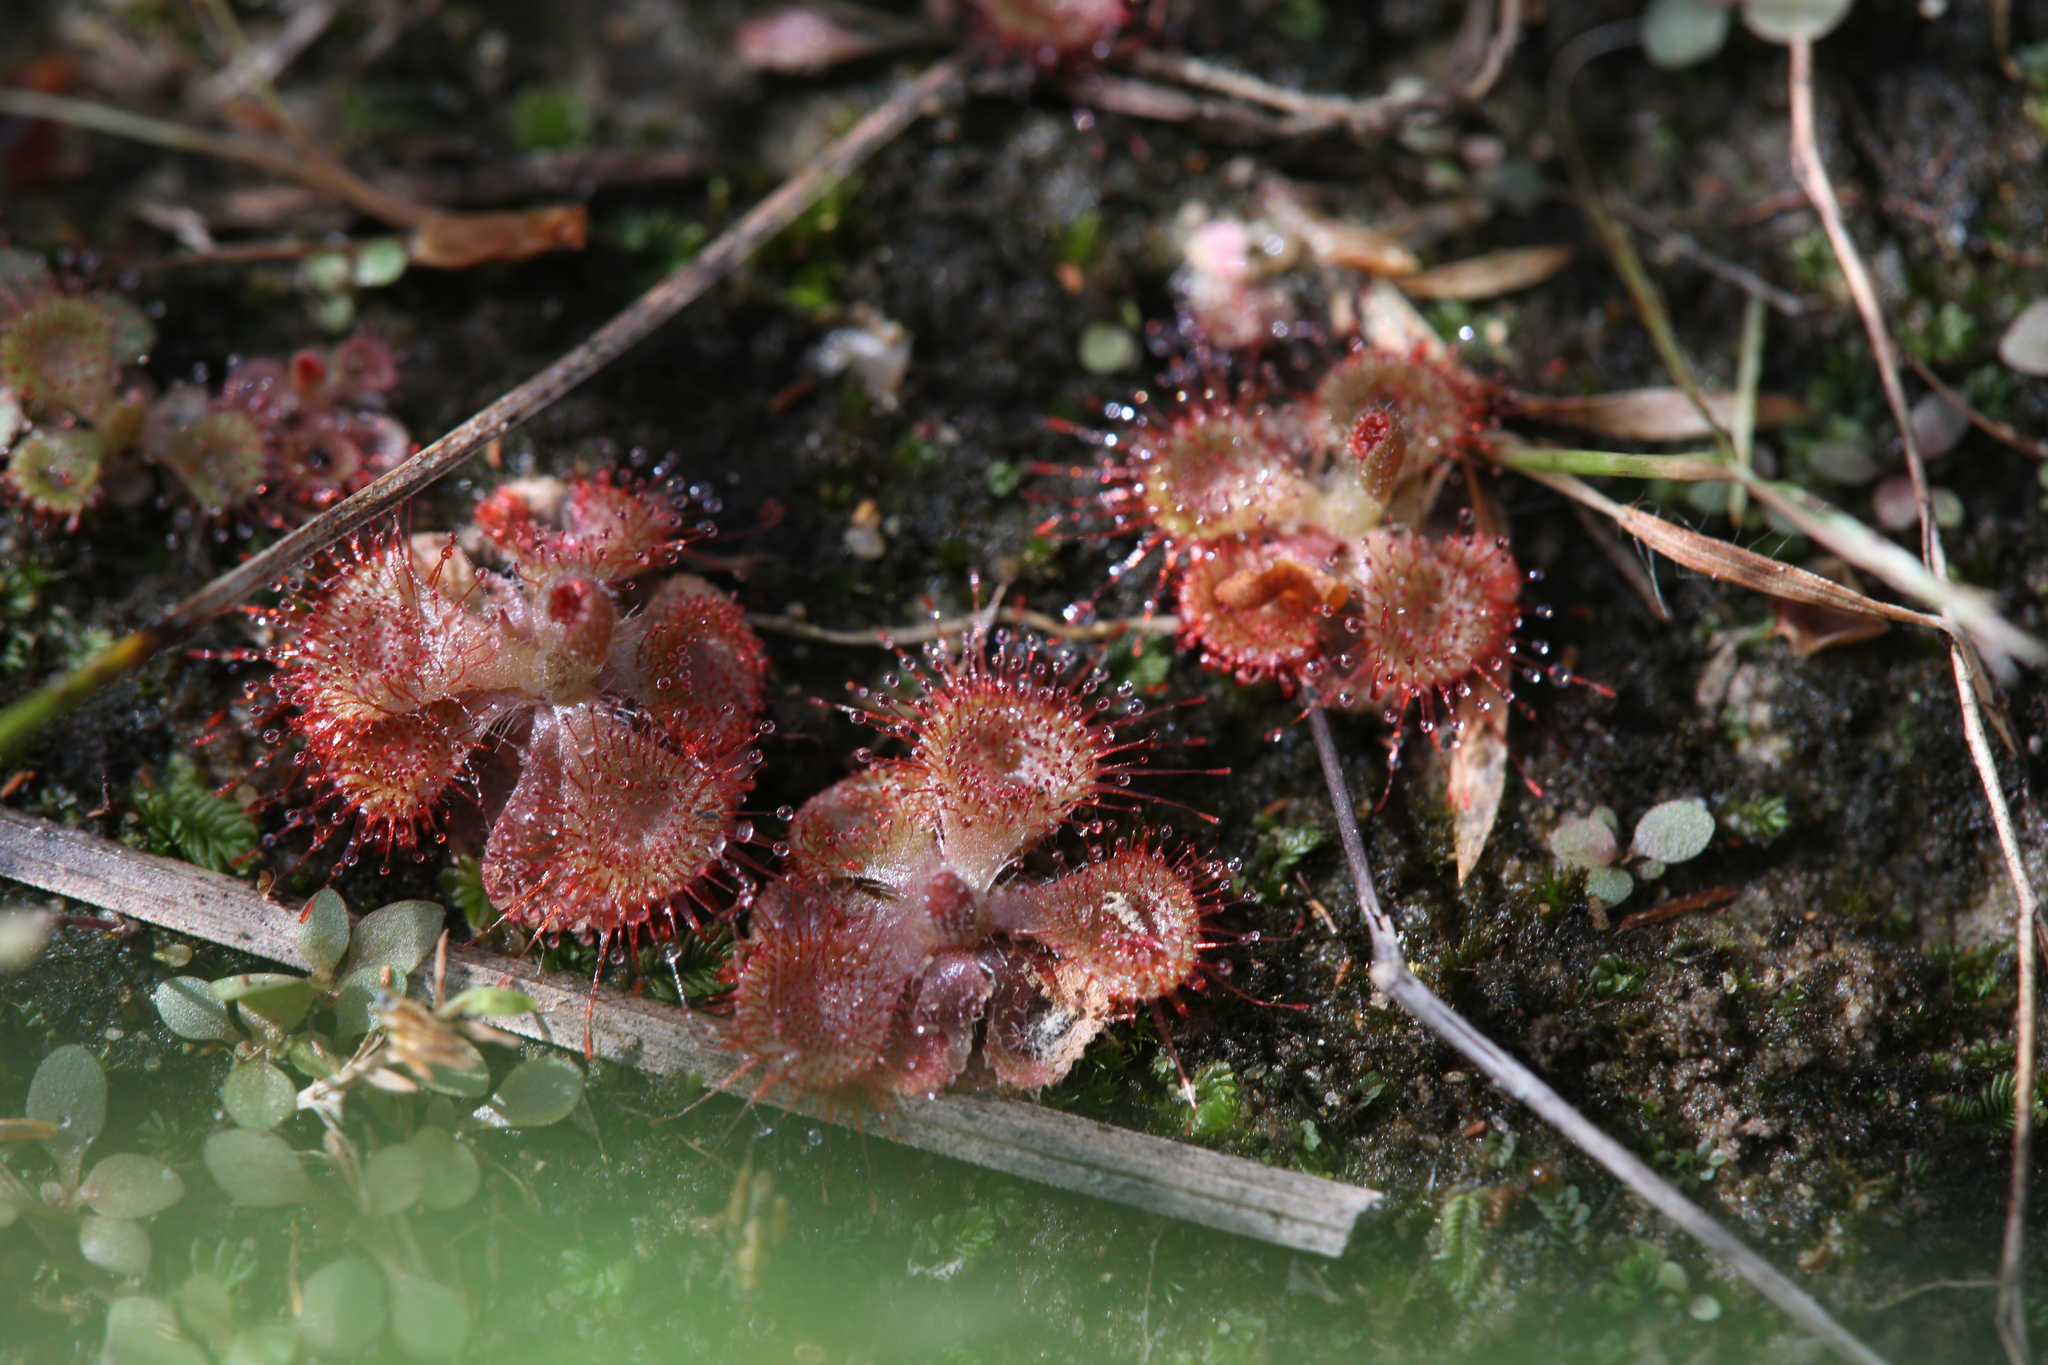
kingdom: Plantae
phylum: Tracheophyta
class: Magnoliopsida
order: Caryophyllales
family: Droseraceae
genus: Drosera
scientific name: Drosera spatulata
